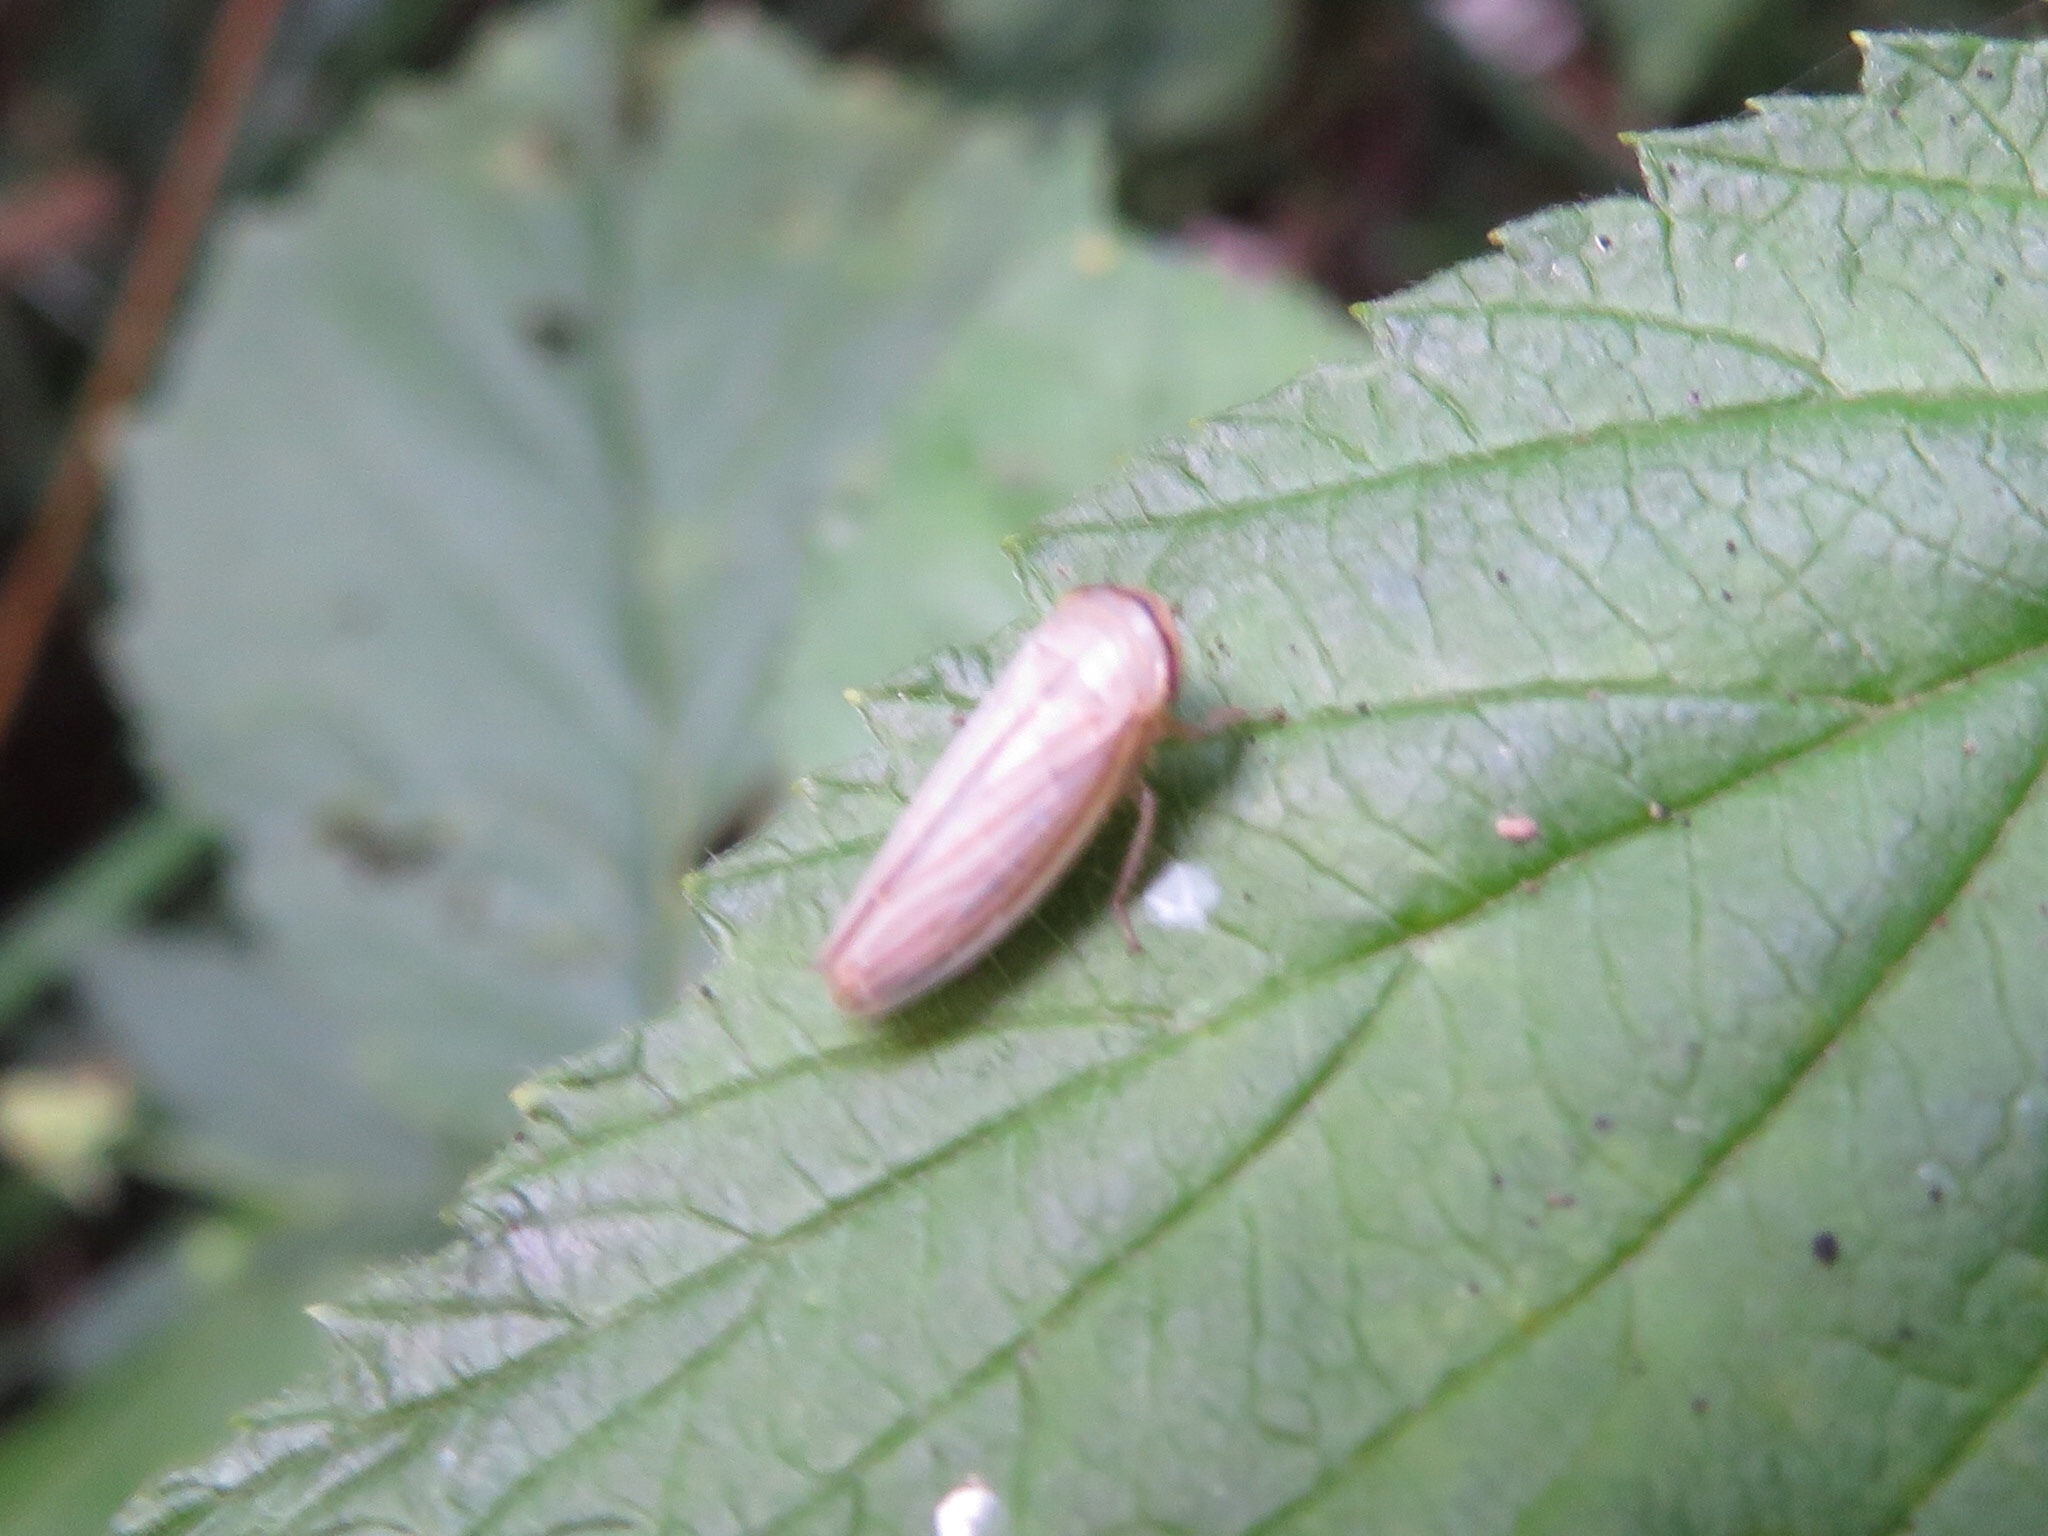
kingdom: Animalia
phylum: Arthropoda
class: Insecta
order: Hemiptera
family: Cicadellidae
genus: Athysanus
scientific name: Athysanus argentarius
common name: Silver leafhopper
